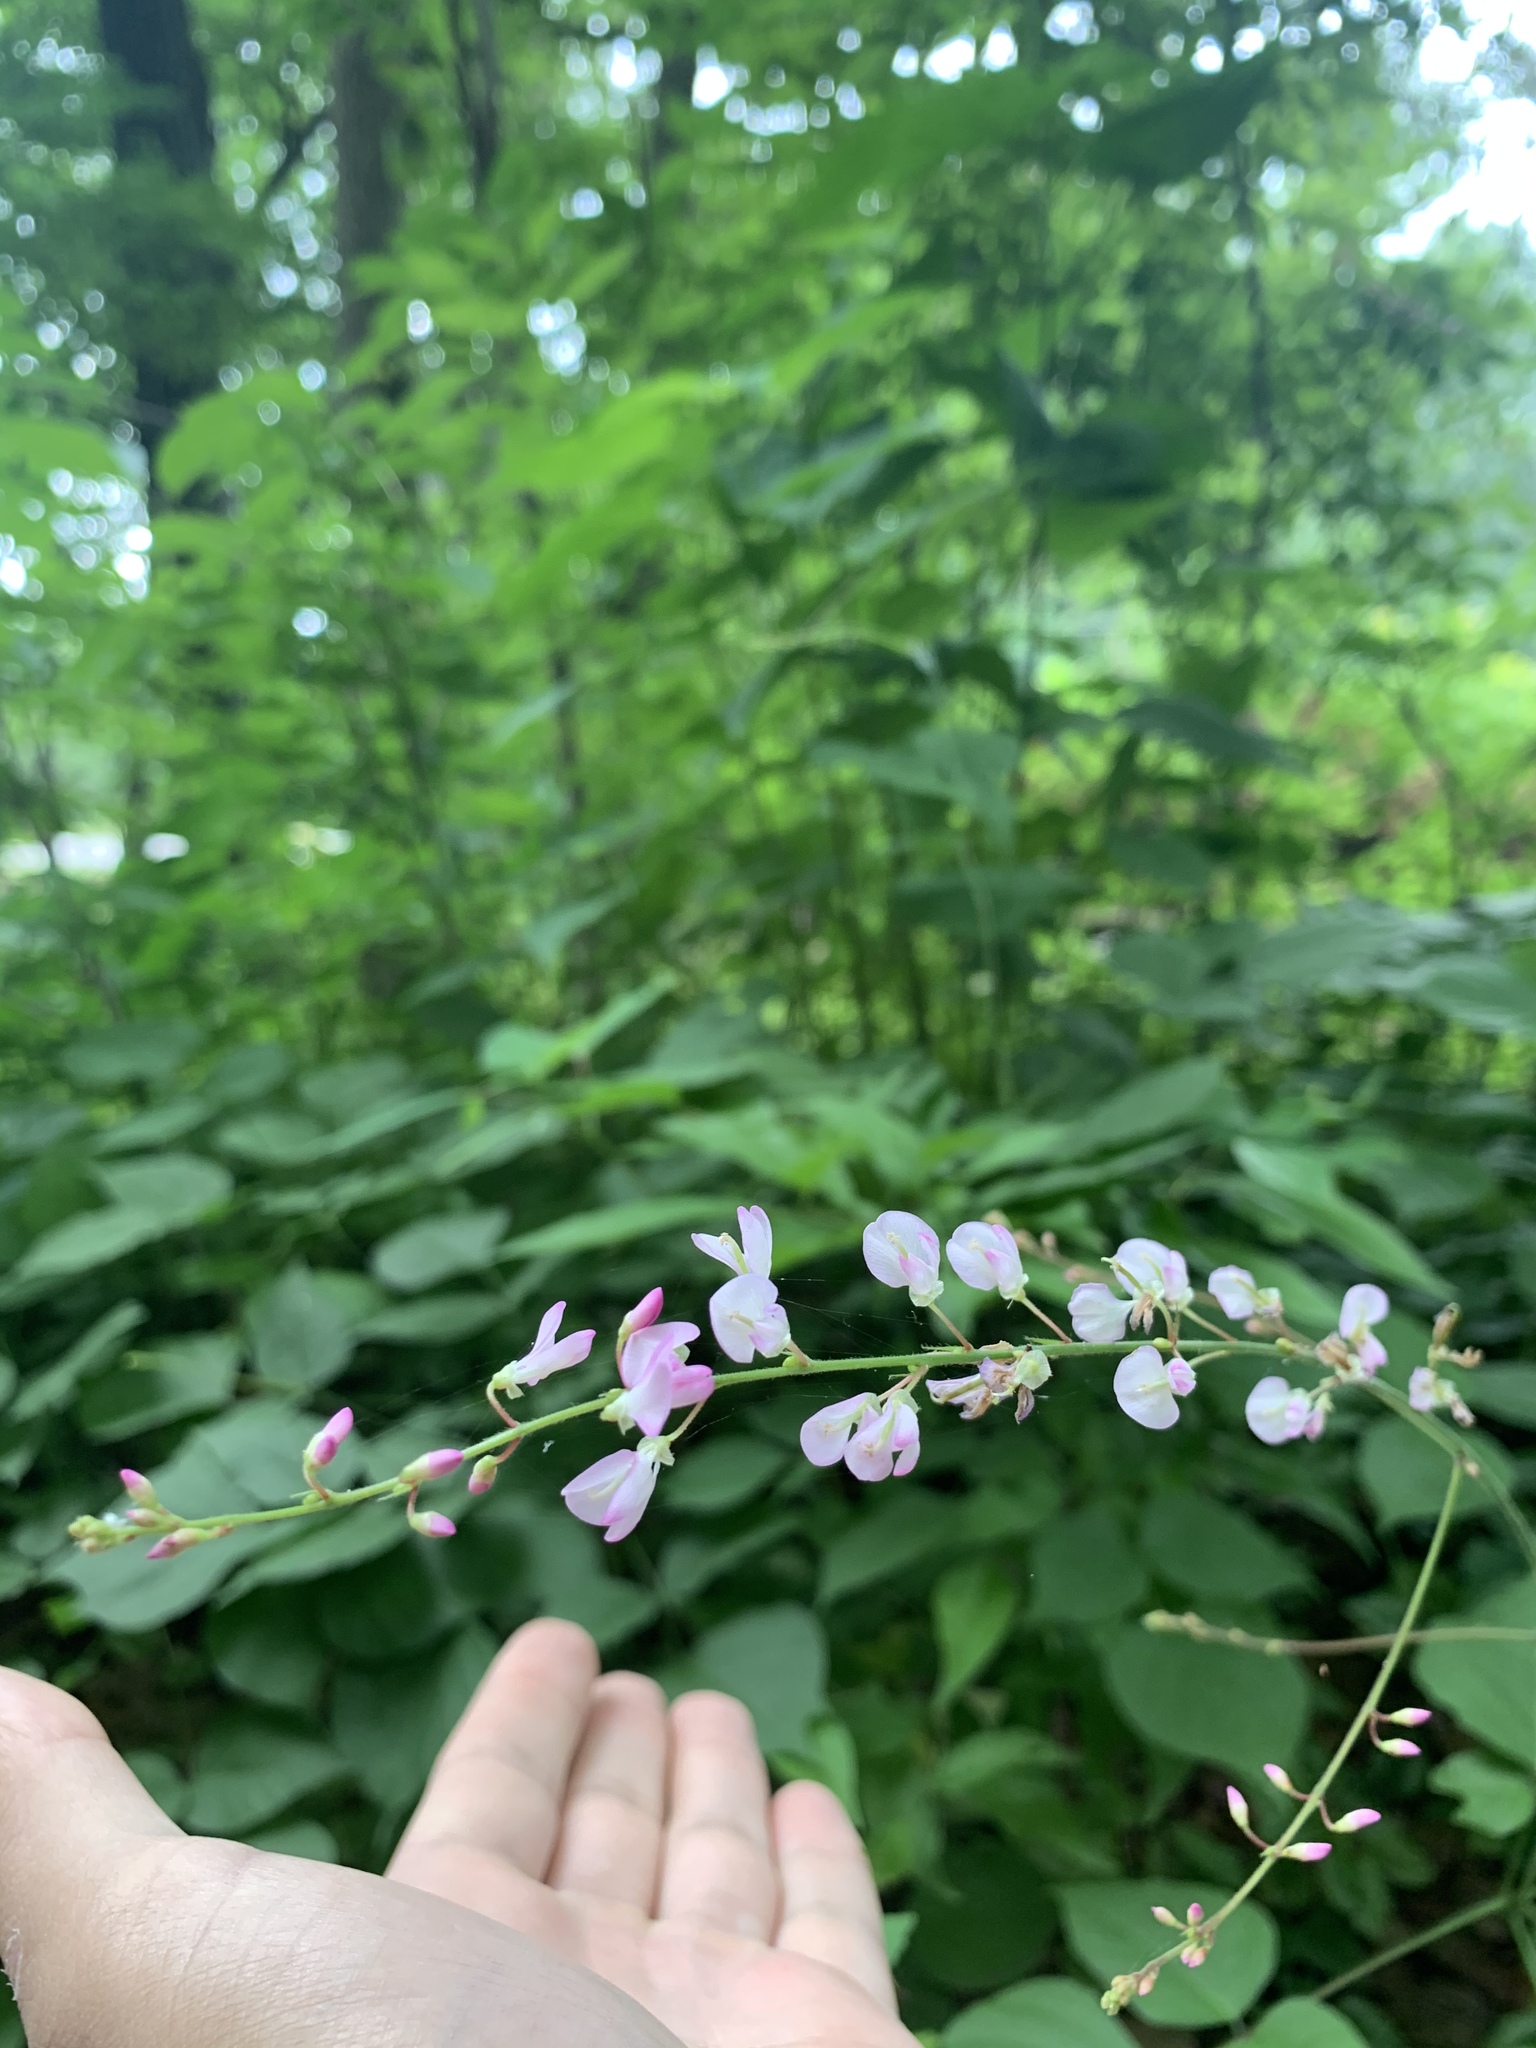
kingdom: Plantae
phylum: Tracheophyta
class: Magnoliopsida
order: Fabales
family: Fabaceae
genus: Hylodesmum
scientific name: Hylodesmum glutinosum
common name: Clustered-leaved tick-trefoil
